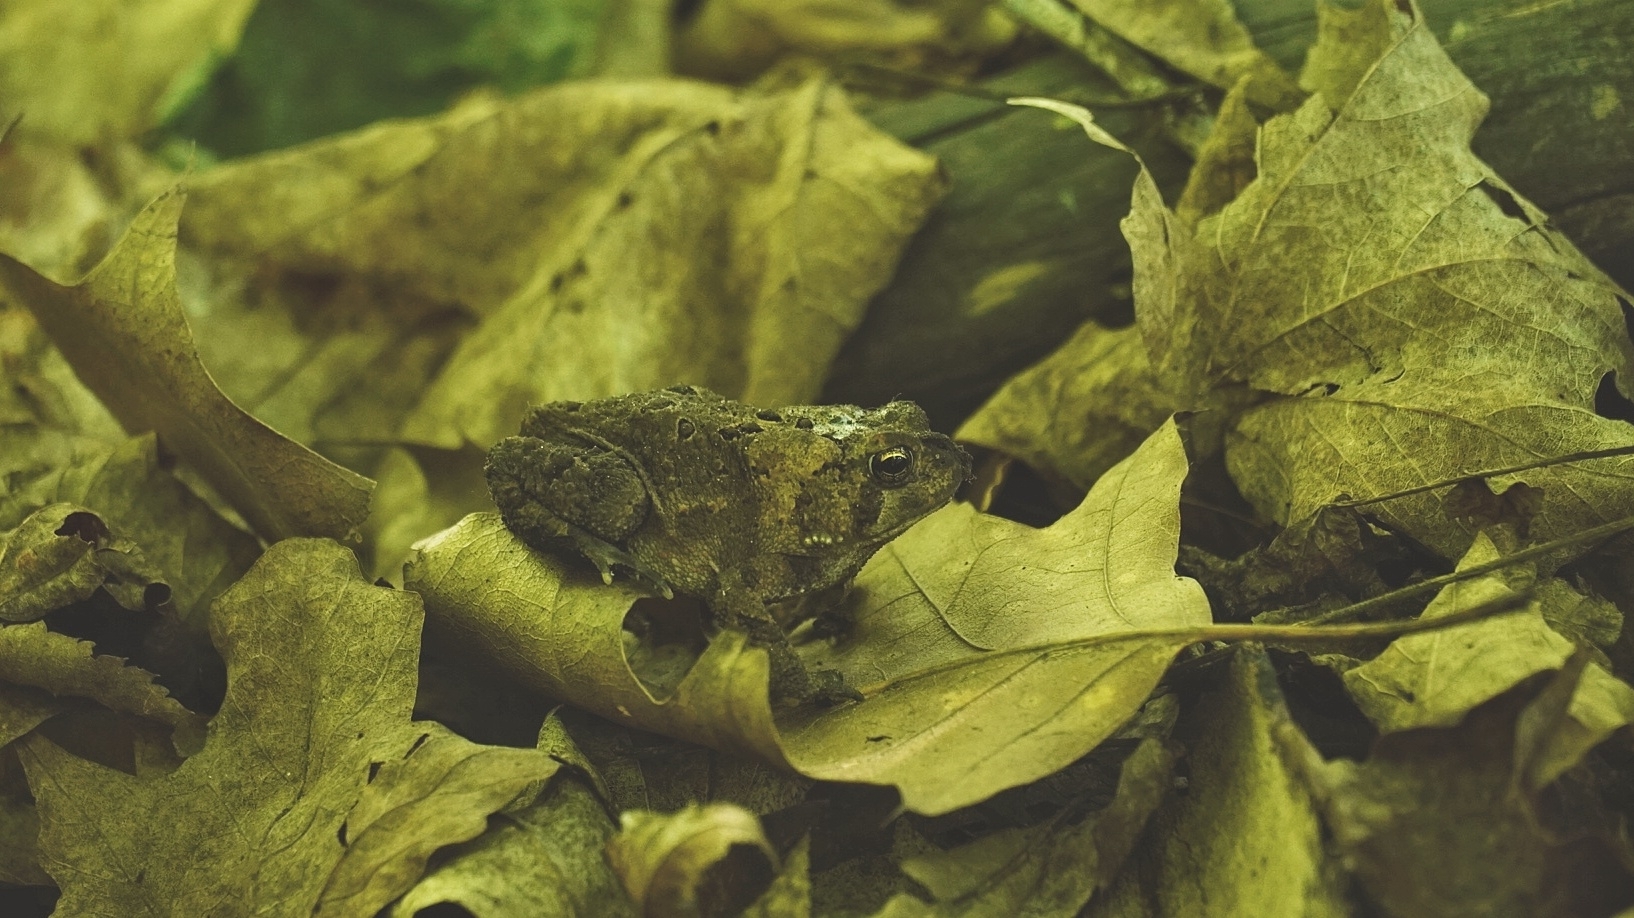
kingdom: Animalia
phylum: Chordata
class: Amphibia
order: Anura
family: Bufonidae
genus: Anaxyrus
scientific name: Anaxyrus americanus
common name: American toad
